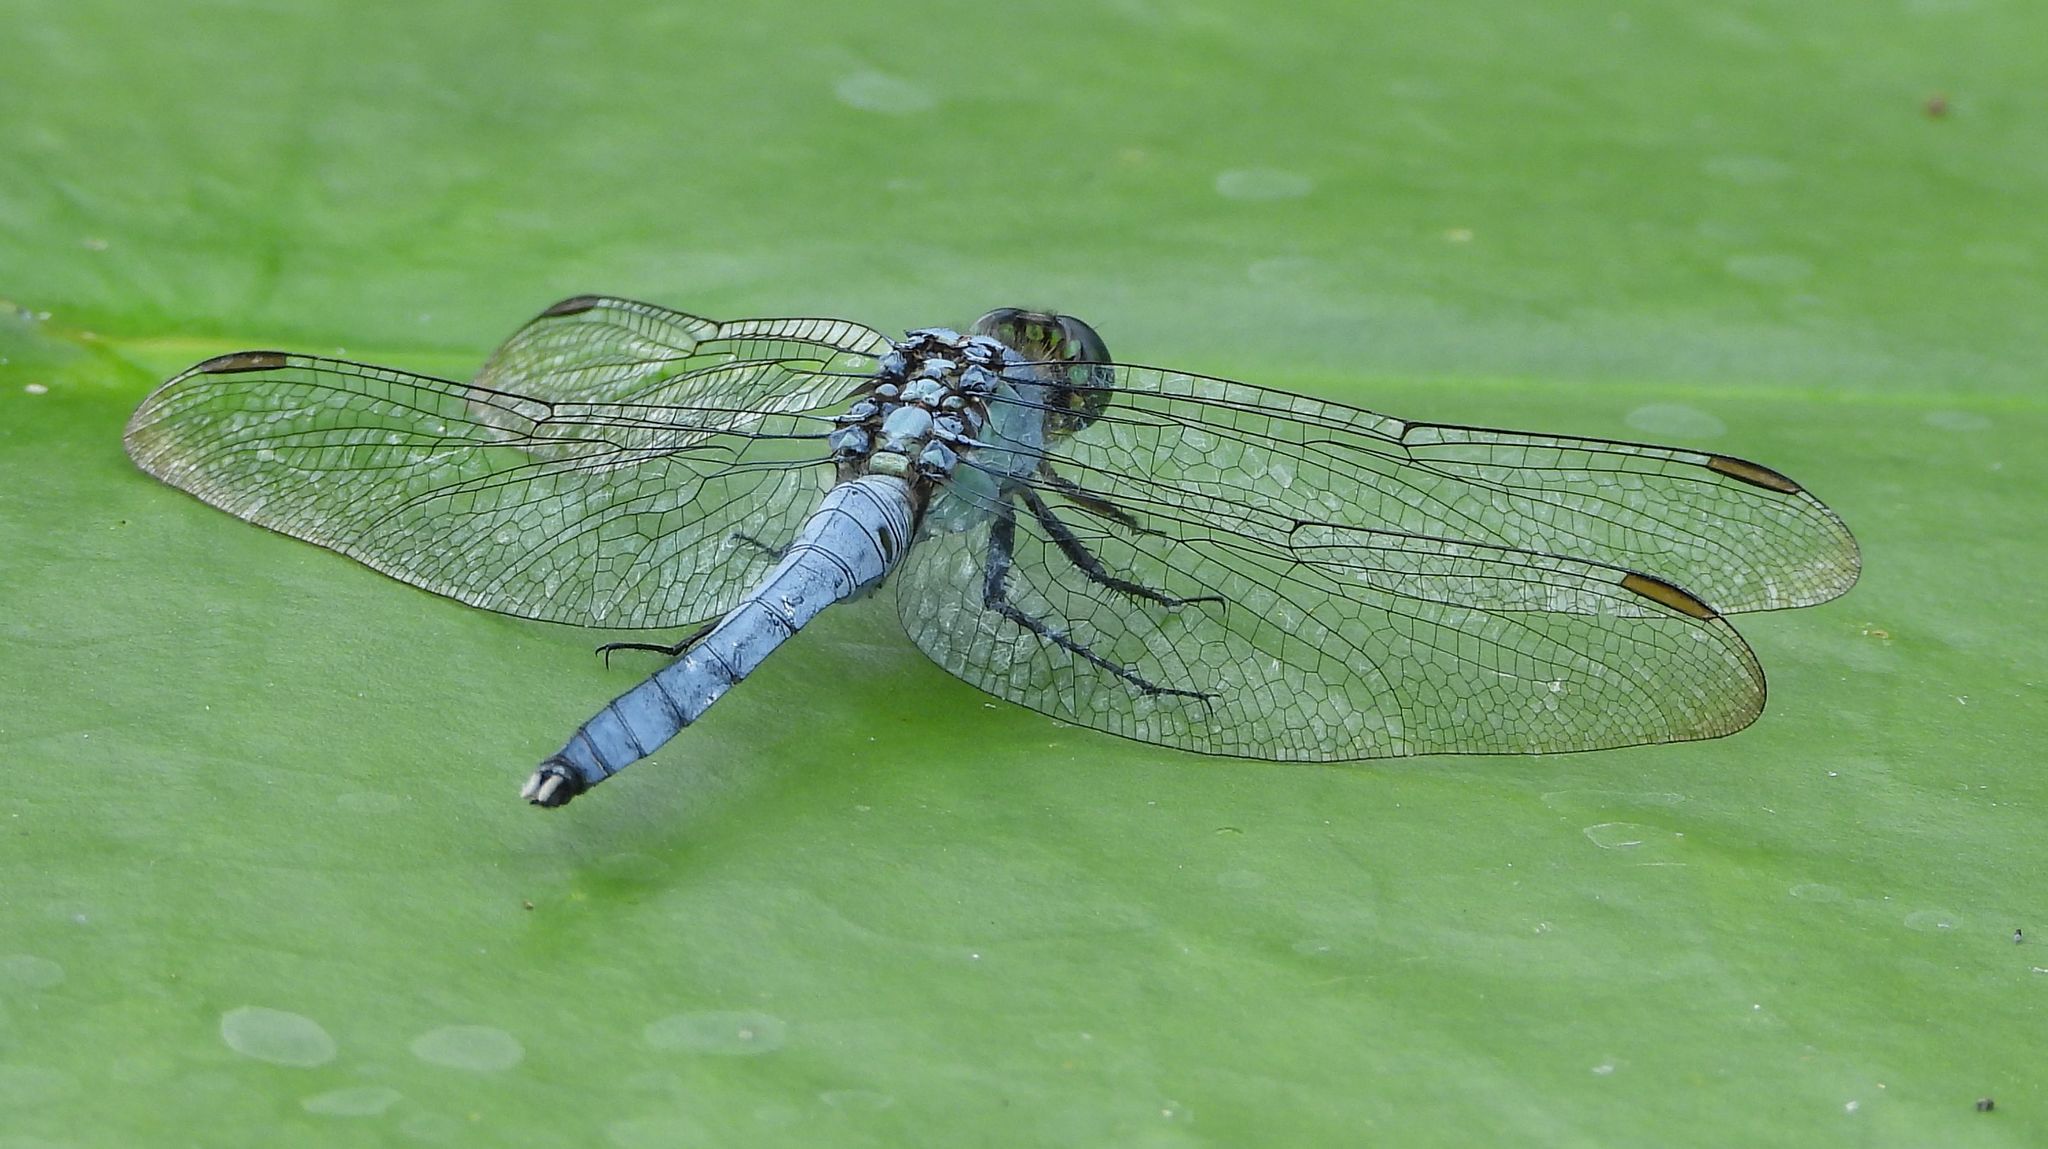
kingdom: Animalia
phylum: Arthropoda
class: Insecta
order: Odonata
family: Libellulidae
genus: Erythemis
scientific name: Erythemis simplicicollis
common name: Eastern pondhawk
